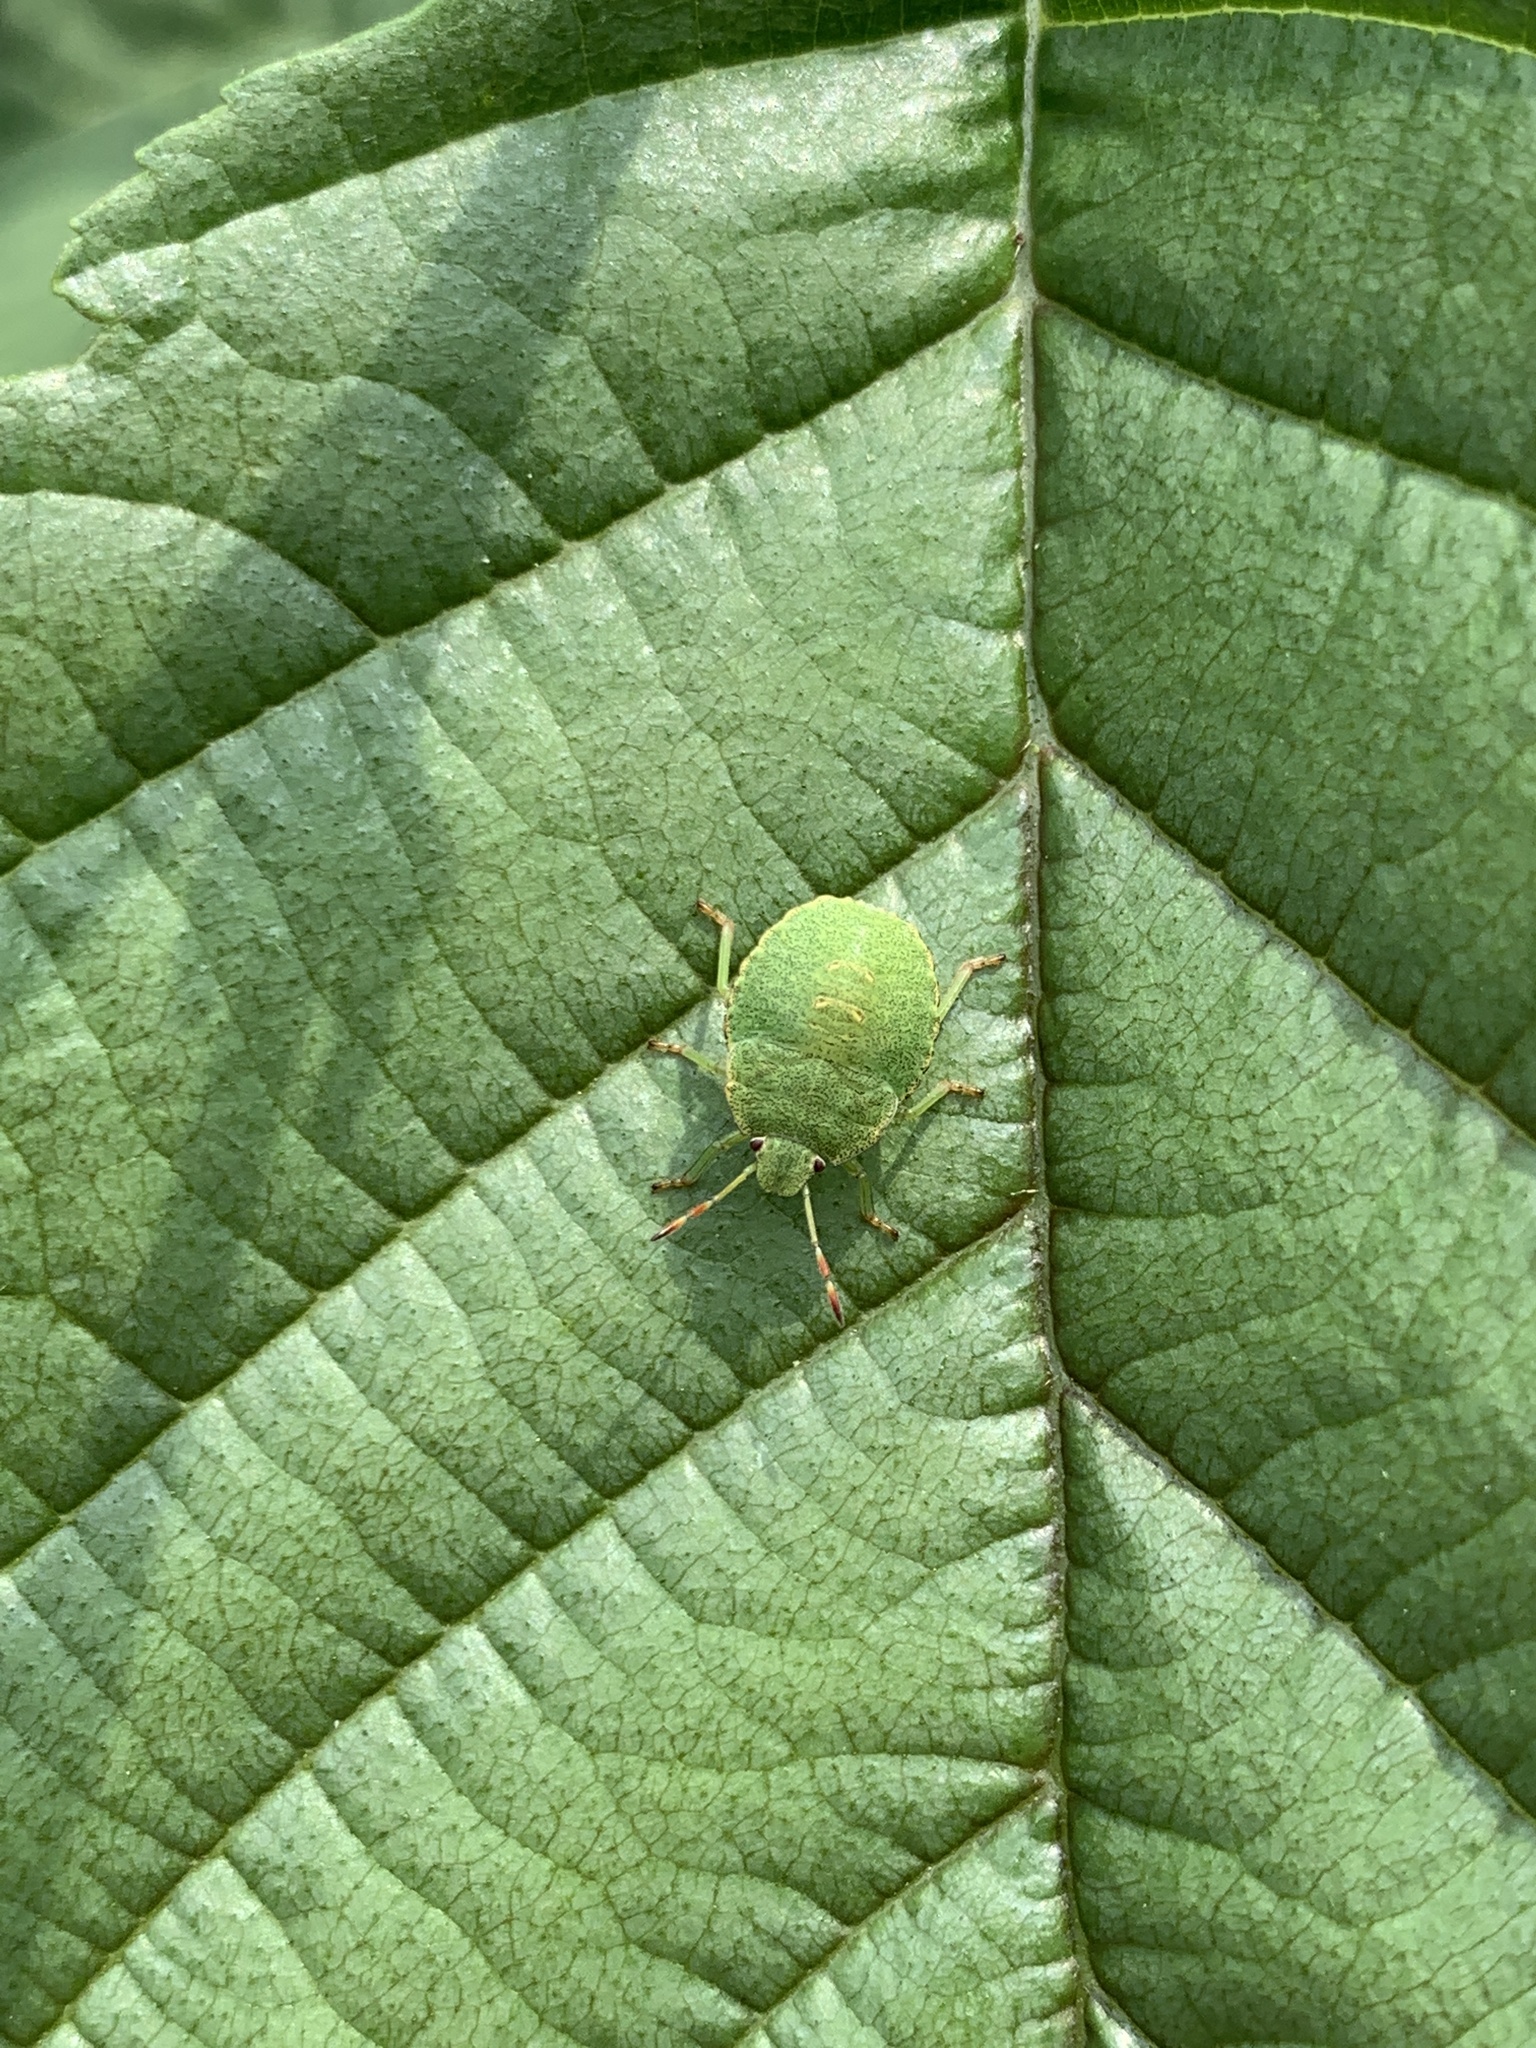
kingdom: Animalia
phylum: Arthropoda
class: Insecta
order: Hemiptera
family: Pentatomidae
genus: Palomena
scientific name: Palomena prasina
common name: Green shieldbug
